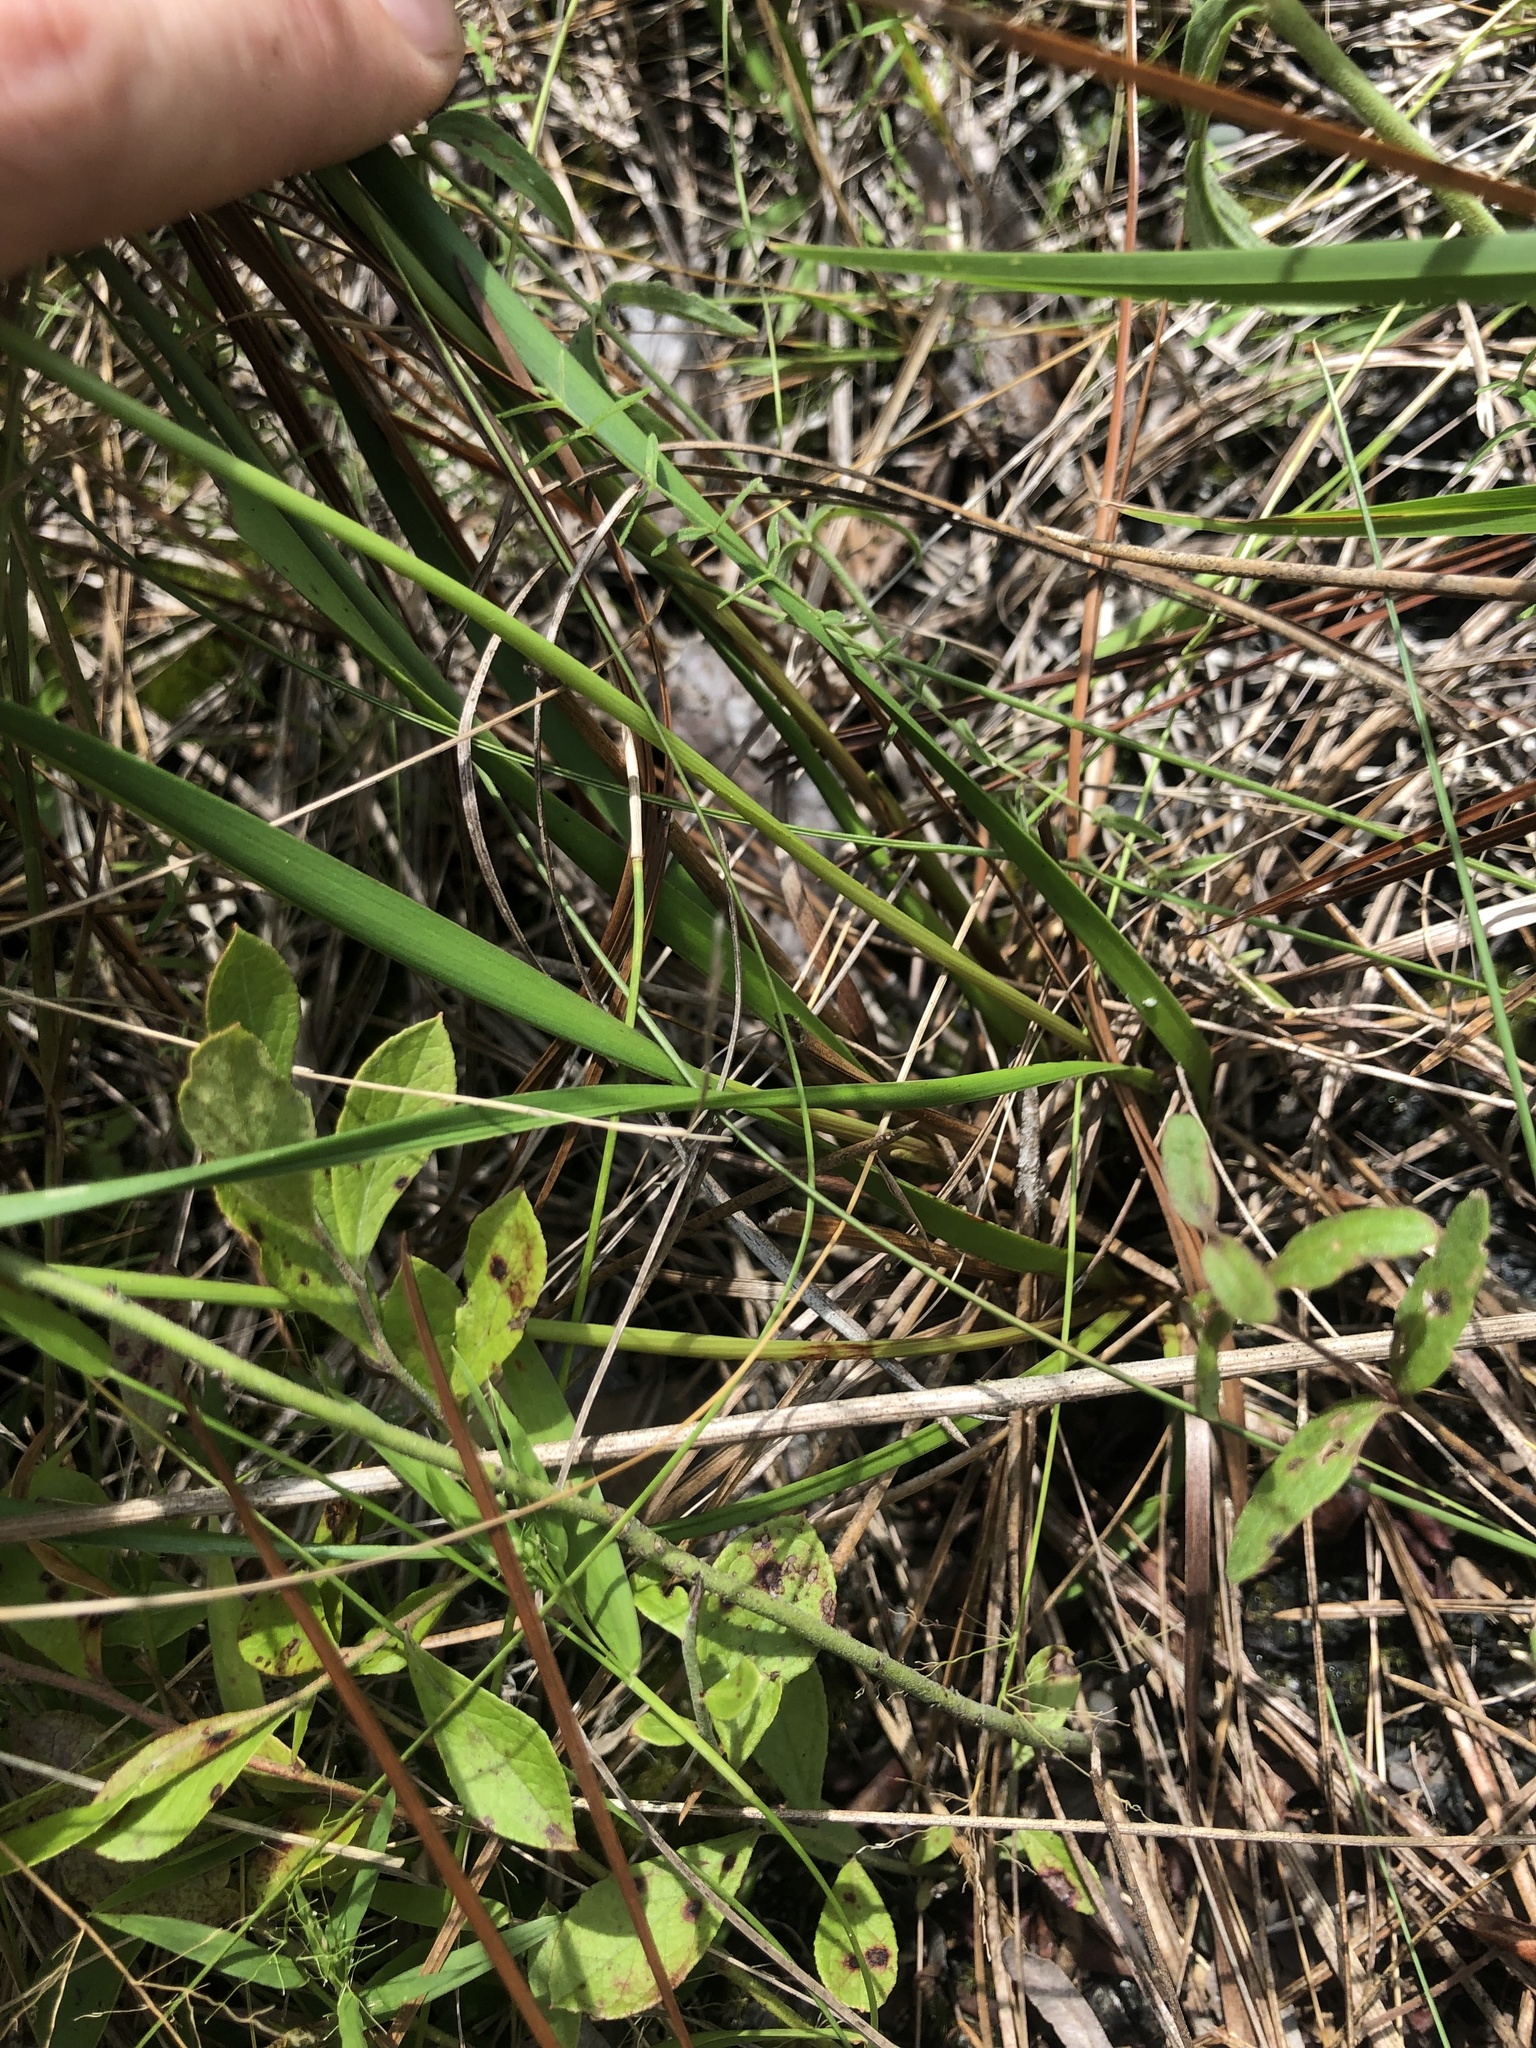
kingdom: Plantae
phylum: Tracheophyta
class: Liliopsida
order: Poales
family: Xyridaceae
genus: Xyris
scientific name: Xyris caroliniana
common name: Carolina yellow-eyed-grass
